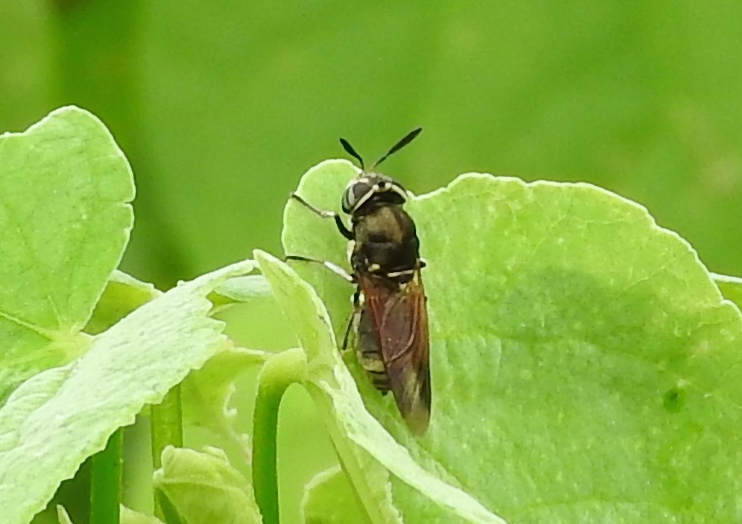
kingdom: Animalia
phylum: Arthropoda
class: Insecta
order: Diptera
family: Stratiomyidae
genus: Hoplitimyia
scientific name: Hoplitimyia
